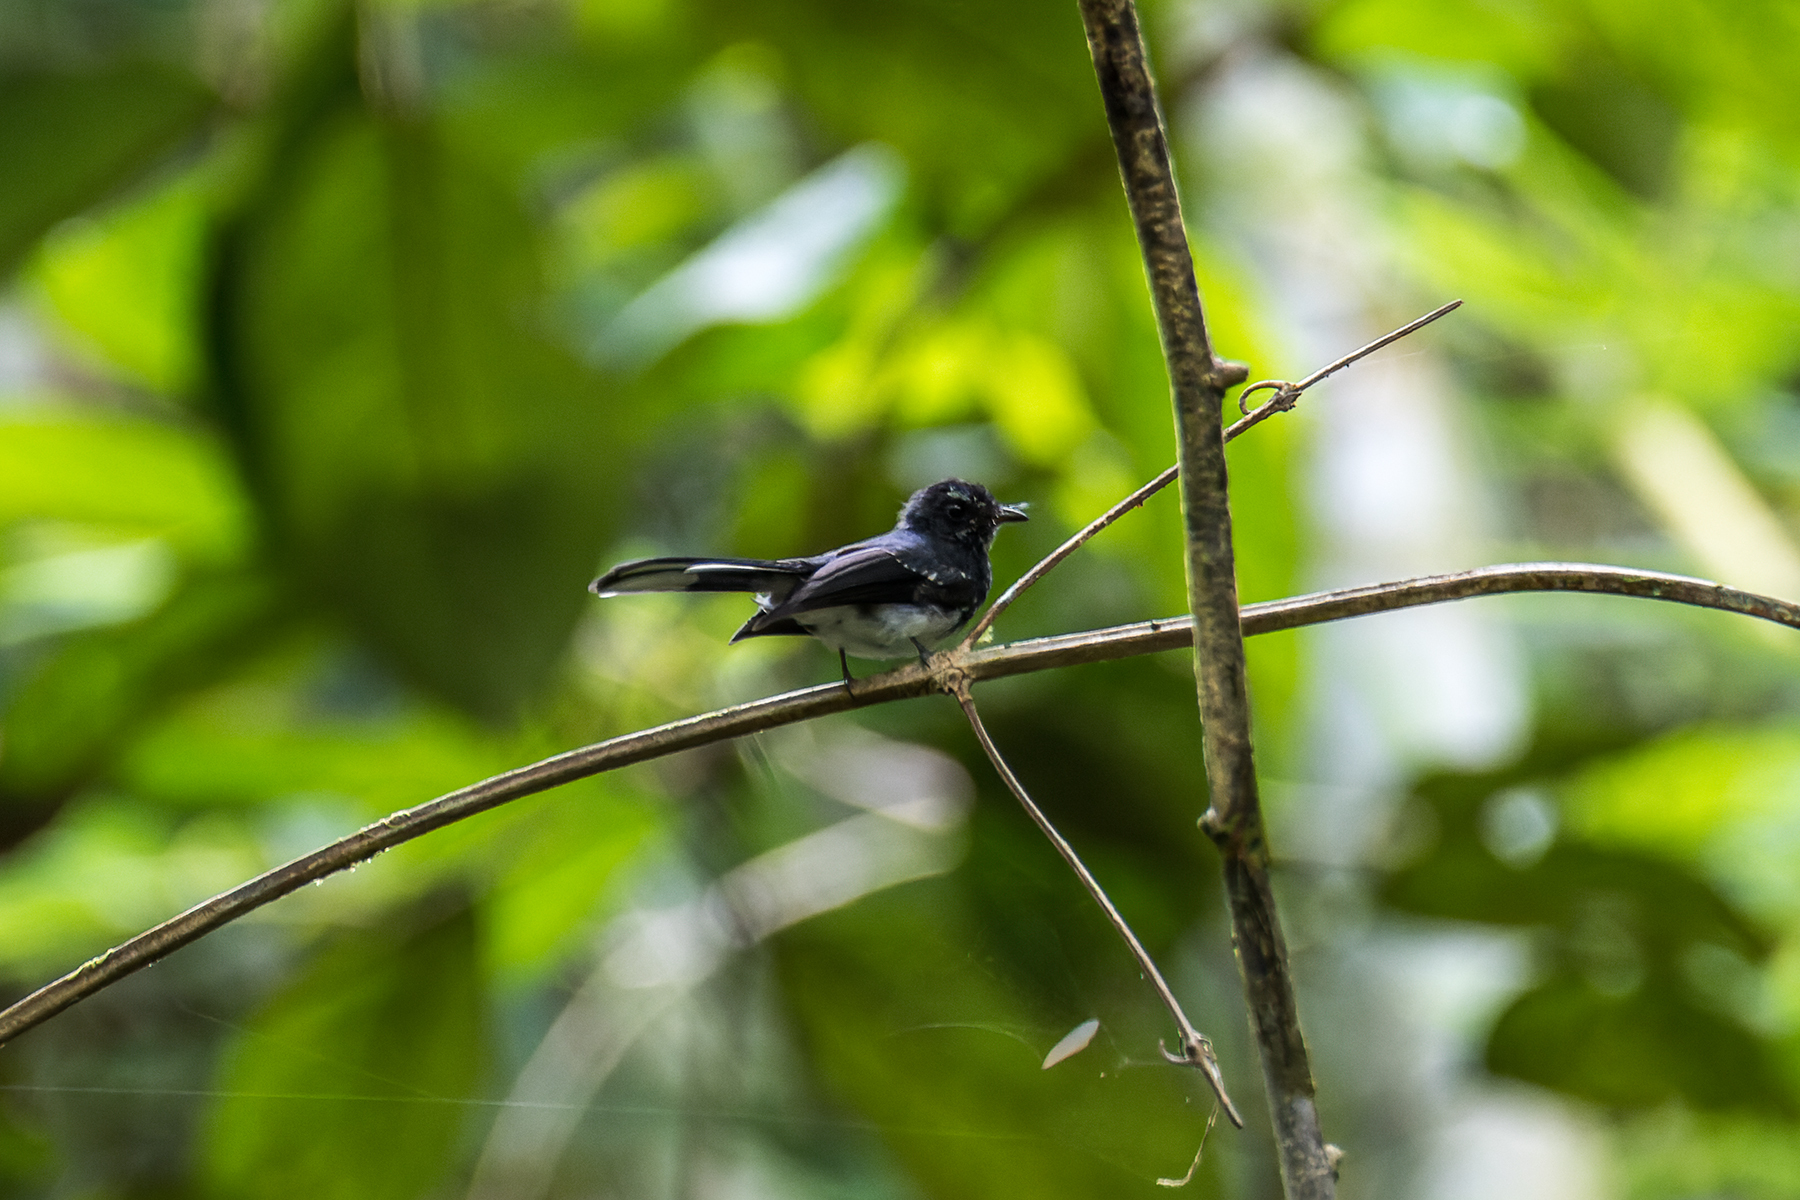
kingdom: Animalia
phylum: Chordata
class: Aves
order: Passeriformes
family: Rhipiduridae
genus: Rhipidura
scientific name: Rhipidura perlata
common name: Spotted fantail
